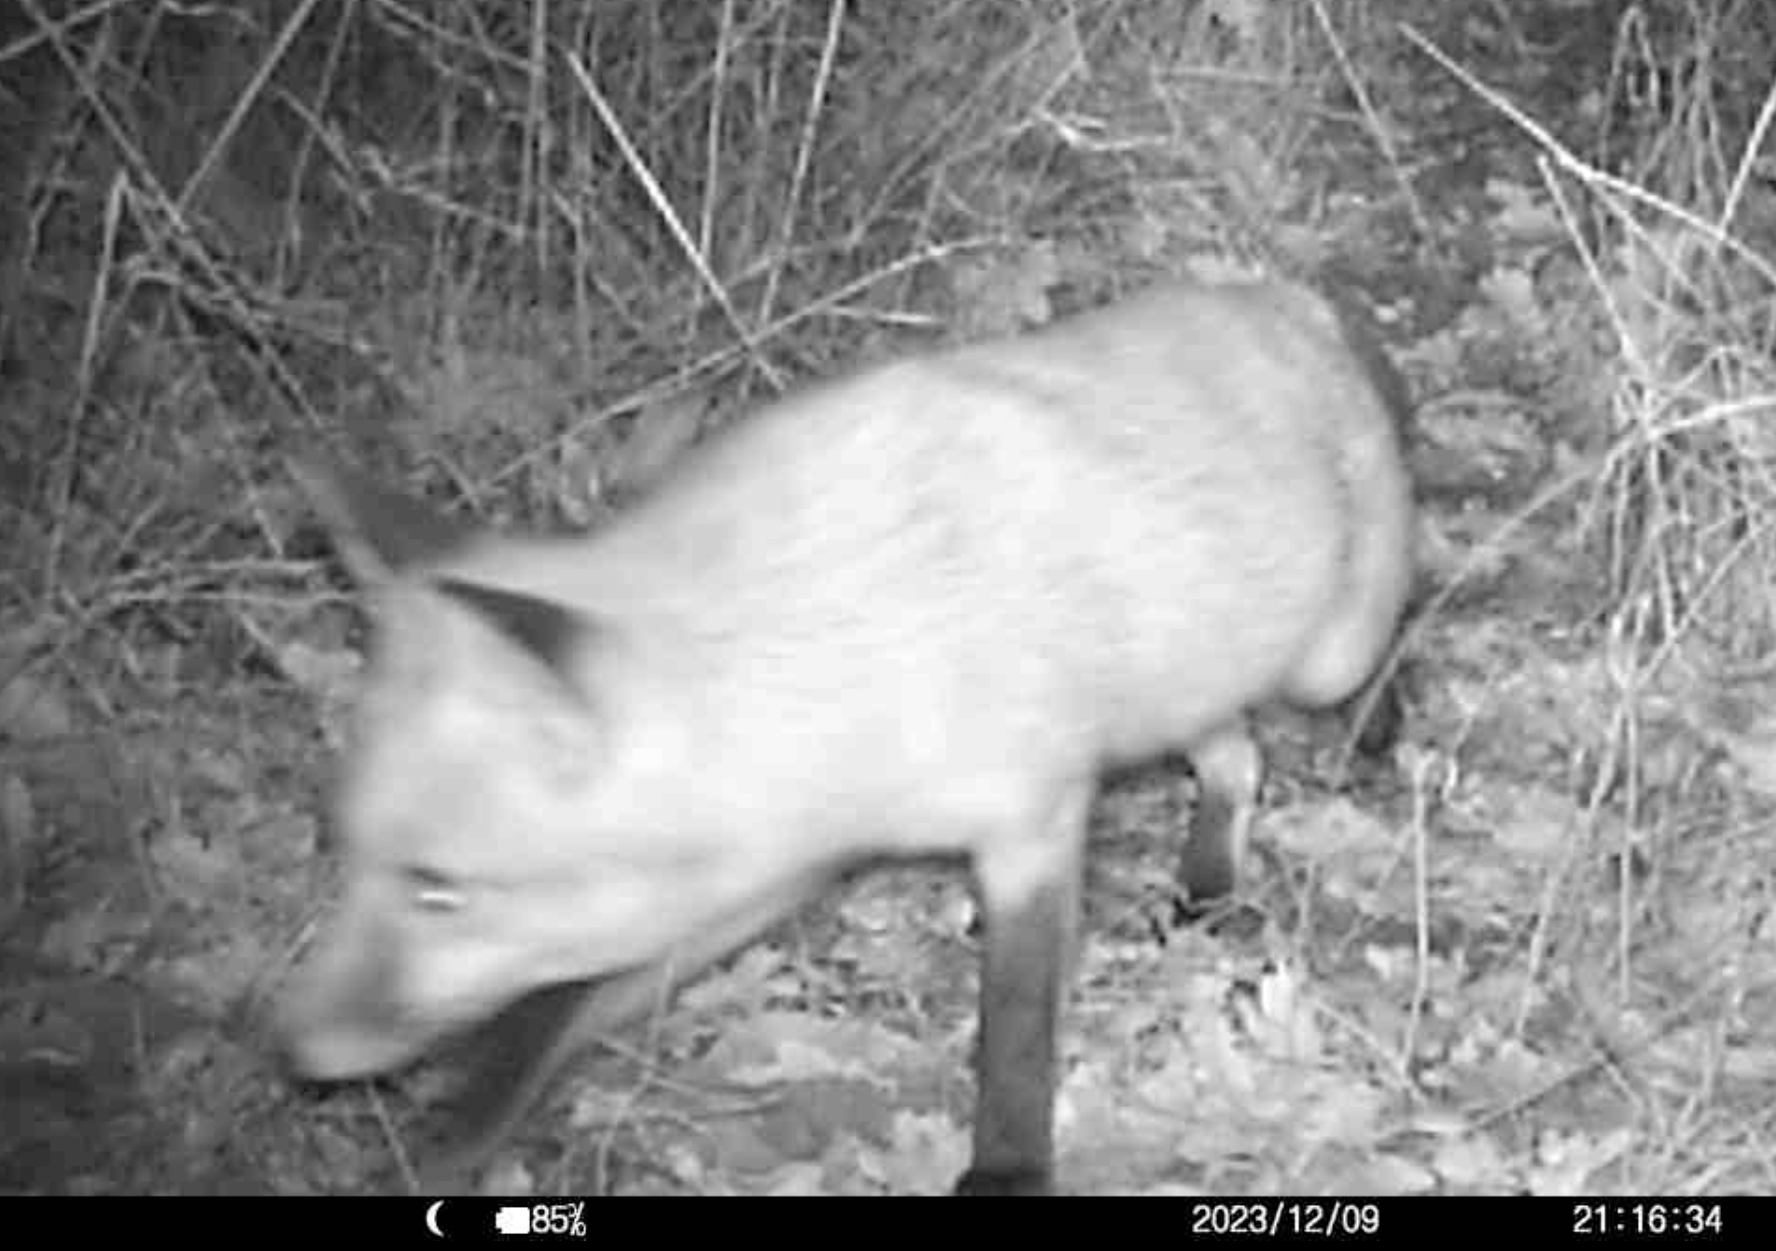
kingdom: Animalia
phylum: Chordata
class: Mammalia
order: Carnivora
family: Canidae
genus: Vulpes
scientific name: Vulpes vulpes
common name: Red fox
